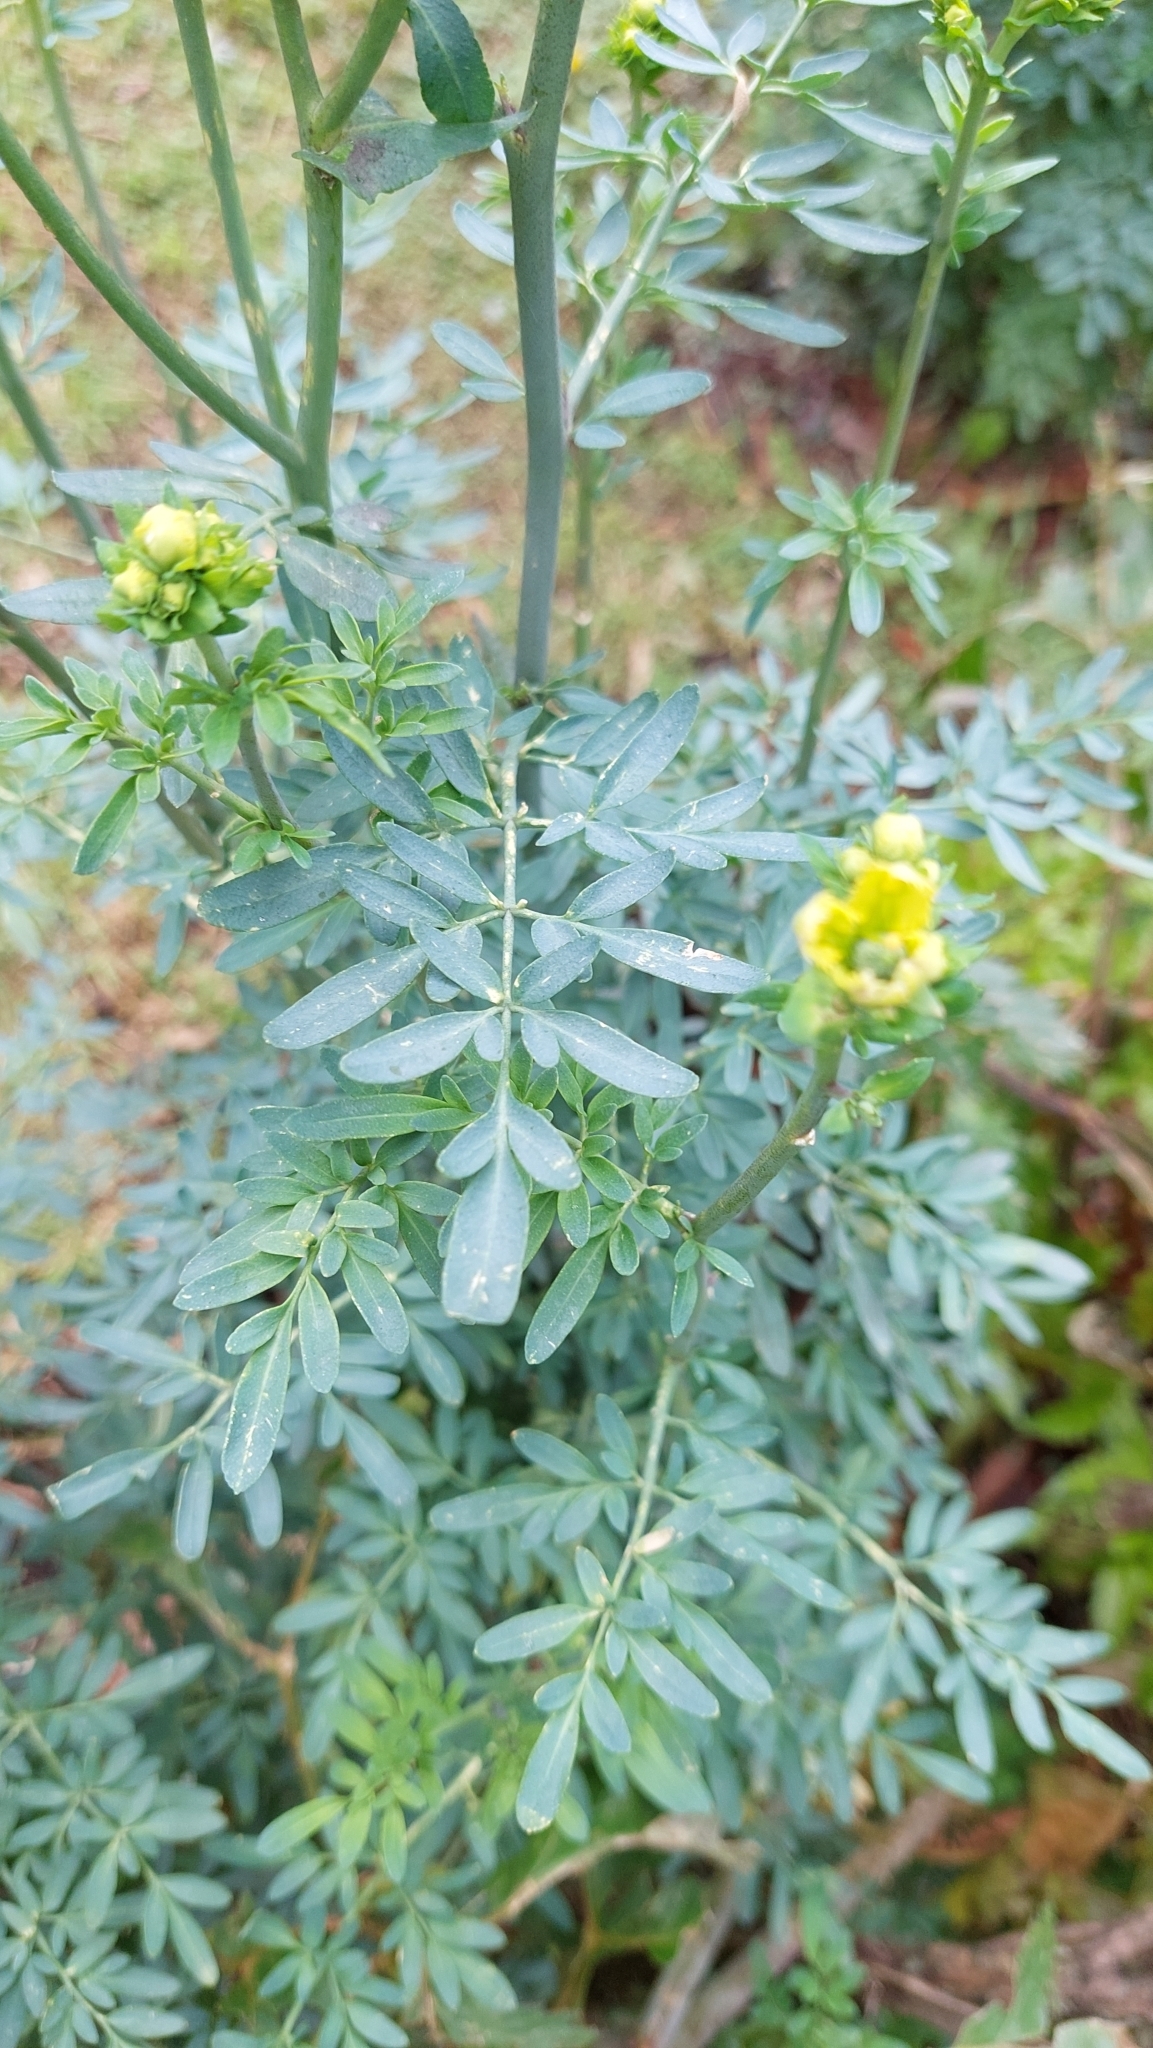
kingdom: Plantae
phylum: Tracheophyta
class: Magnoliopsida
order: Sapindales
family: Rutaceae
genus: Ruta
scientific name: Ruta graveolens
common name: Common rue
